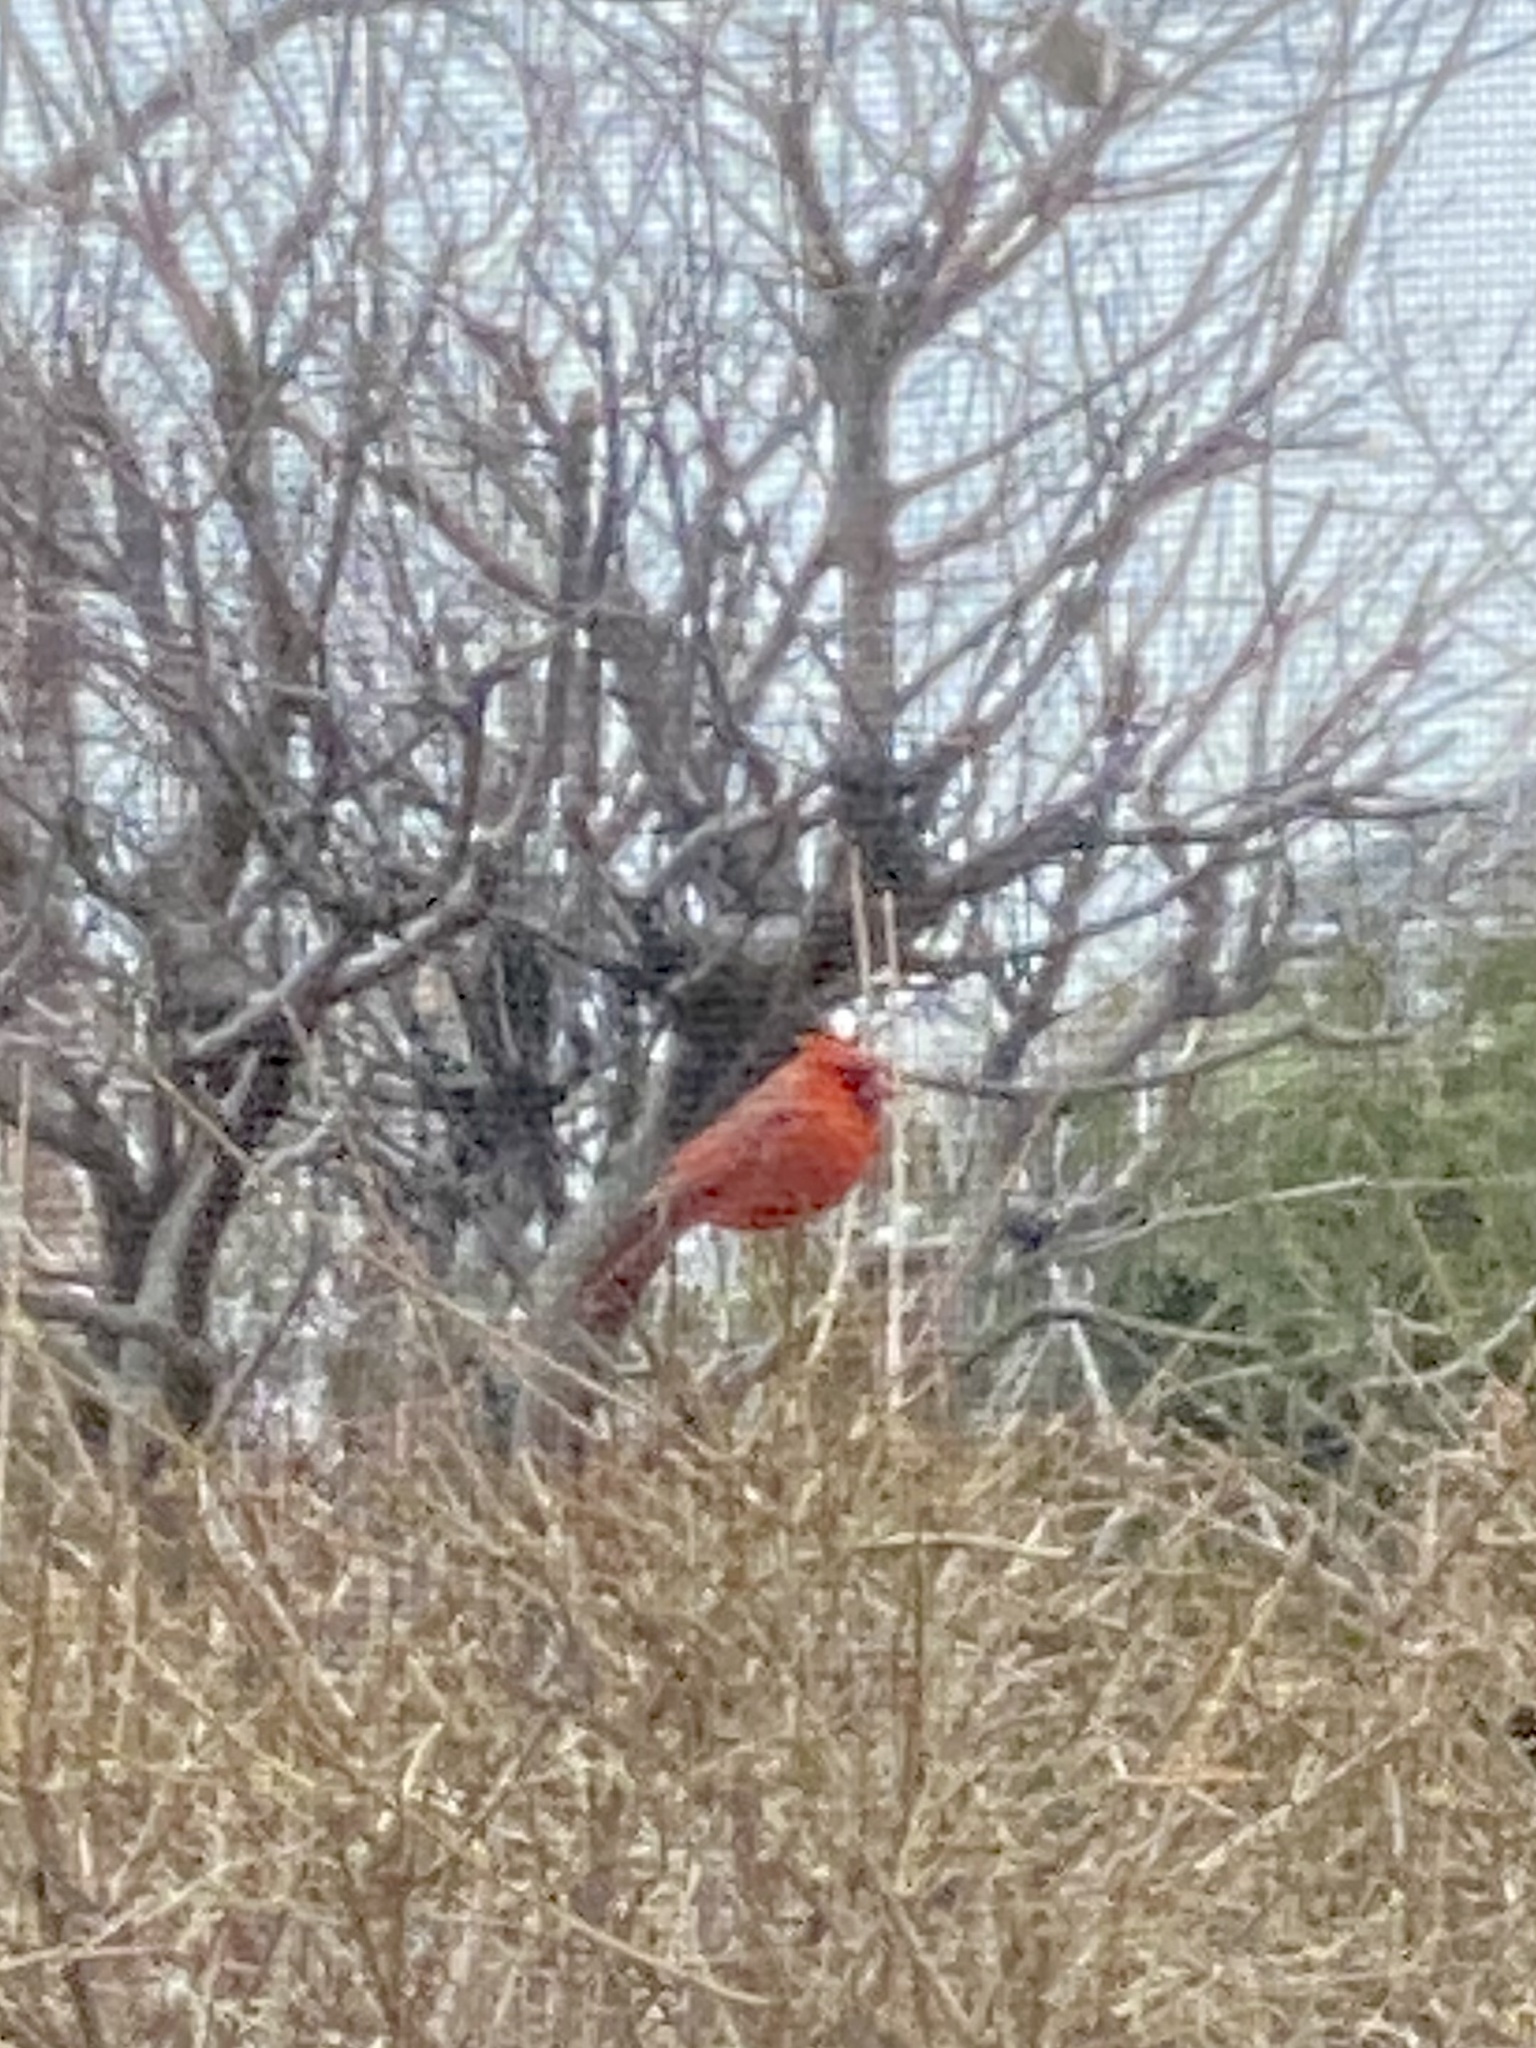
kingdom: Animalia
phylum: Chordata
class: Aves
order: Passeriformes
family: Cardinalidae
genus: Cardinalis
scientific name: Cardinalis cardinalis
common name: Northern cardinal
